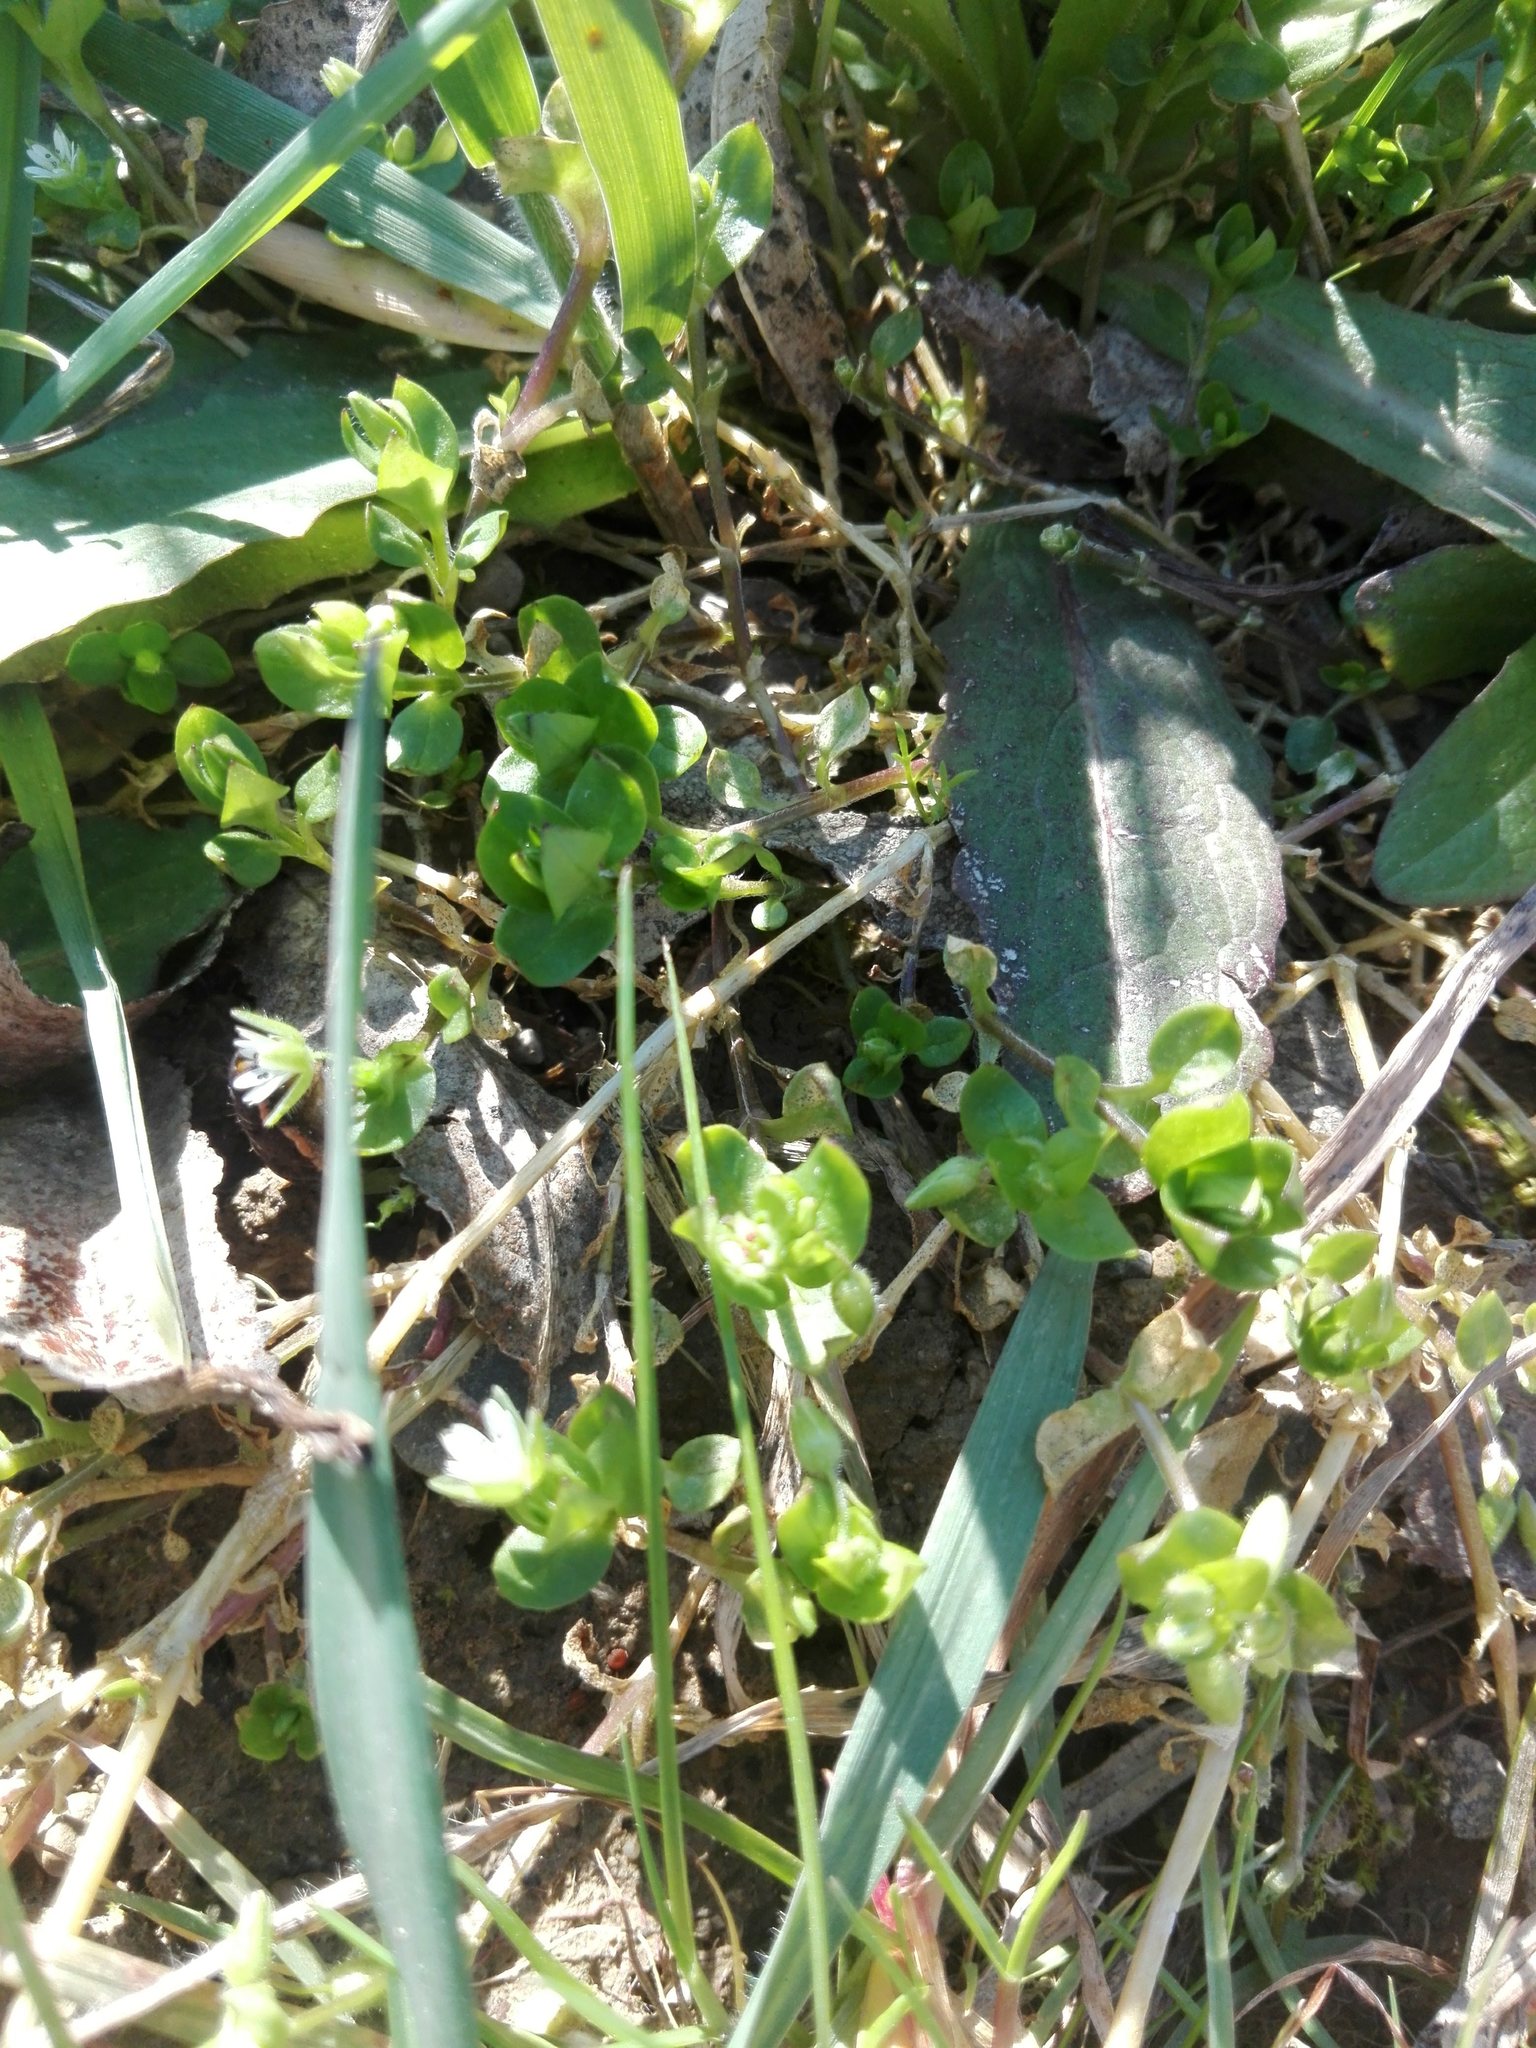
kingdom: Plantae
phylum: Tracheophyta
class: Magnoliopsida
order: Caryophyllales
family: Caryophyllaceae
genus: Stellaria
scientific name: Stellaria media
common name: Common chickweed
